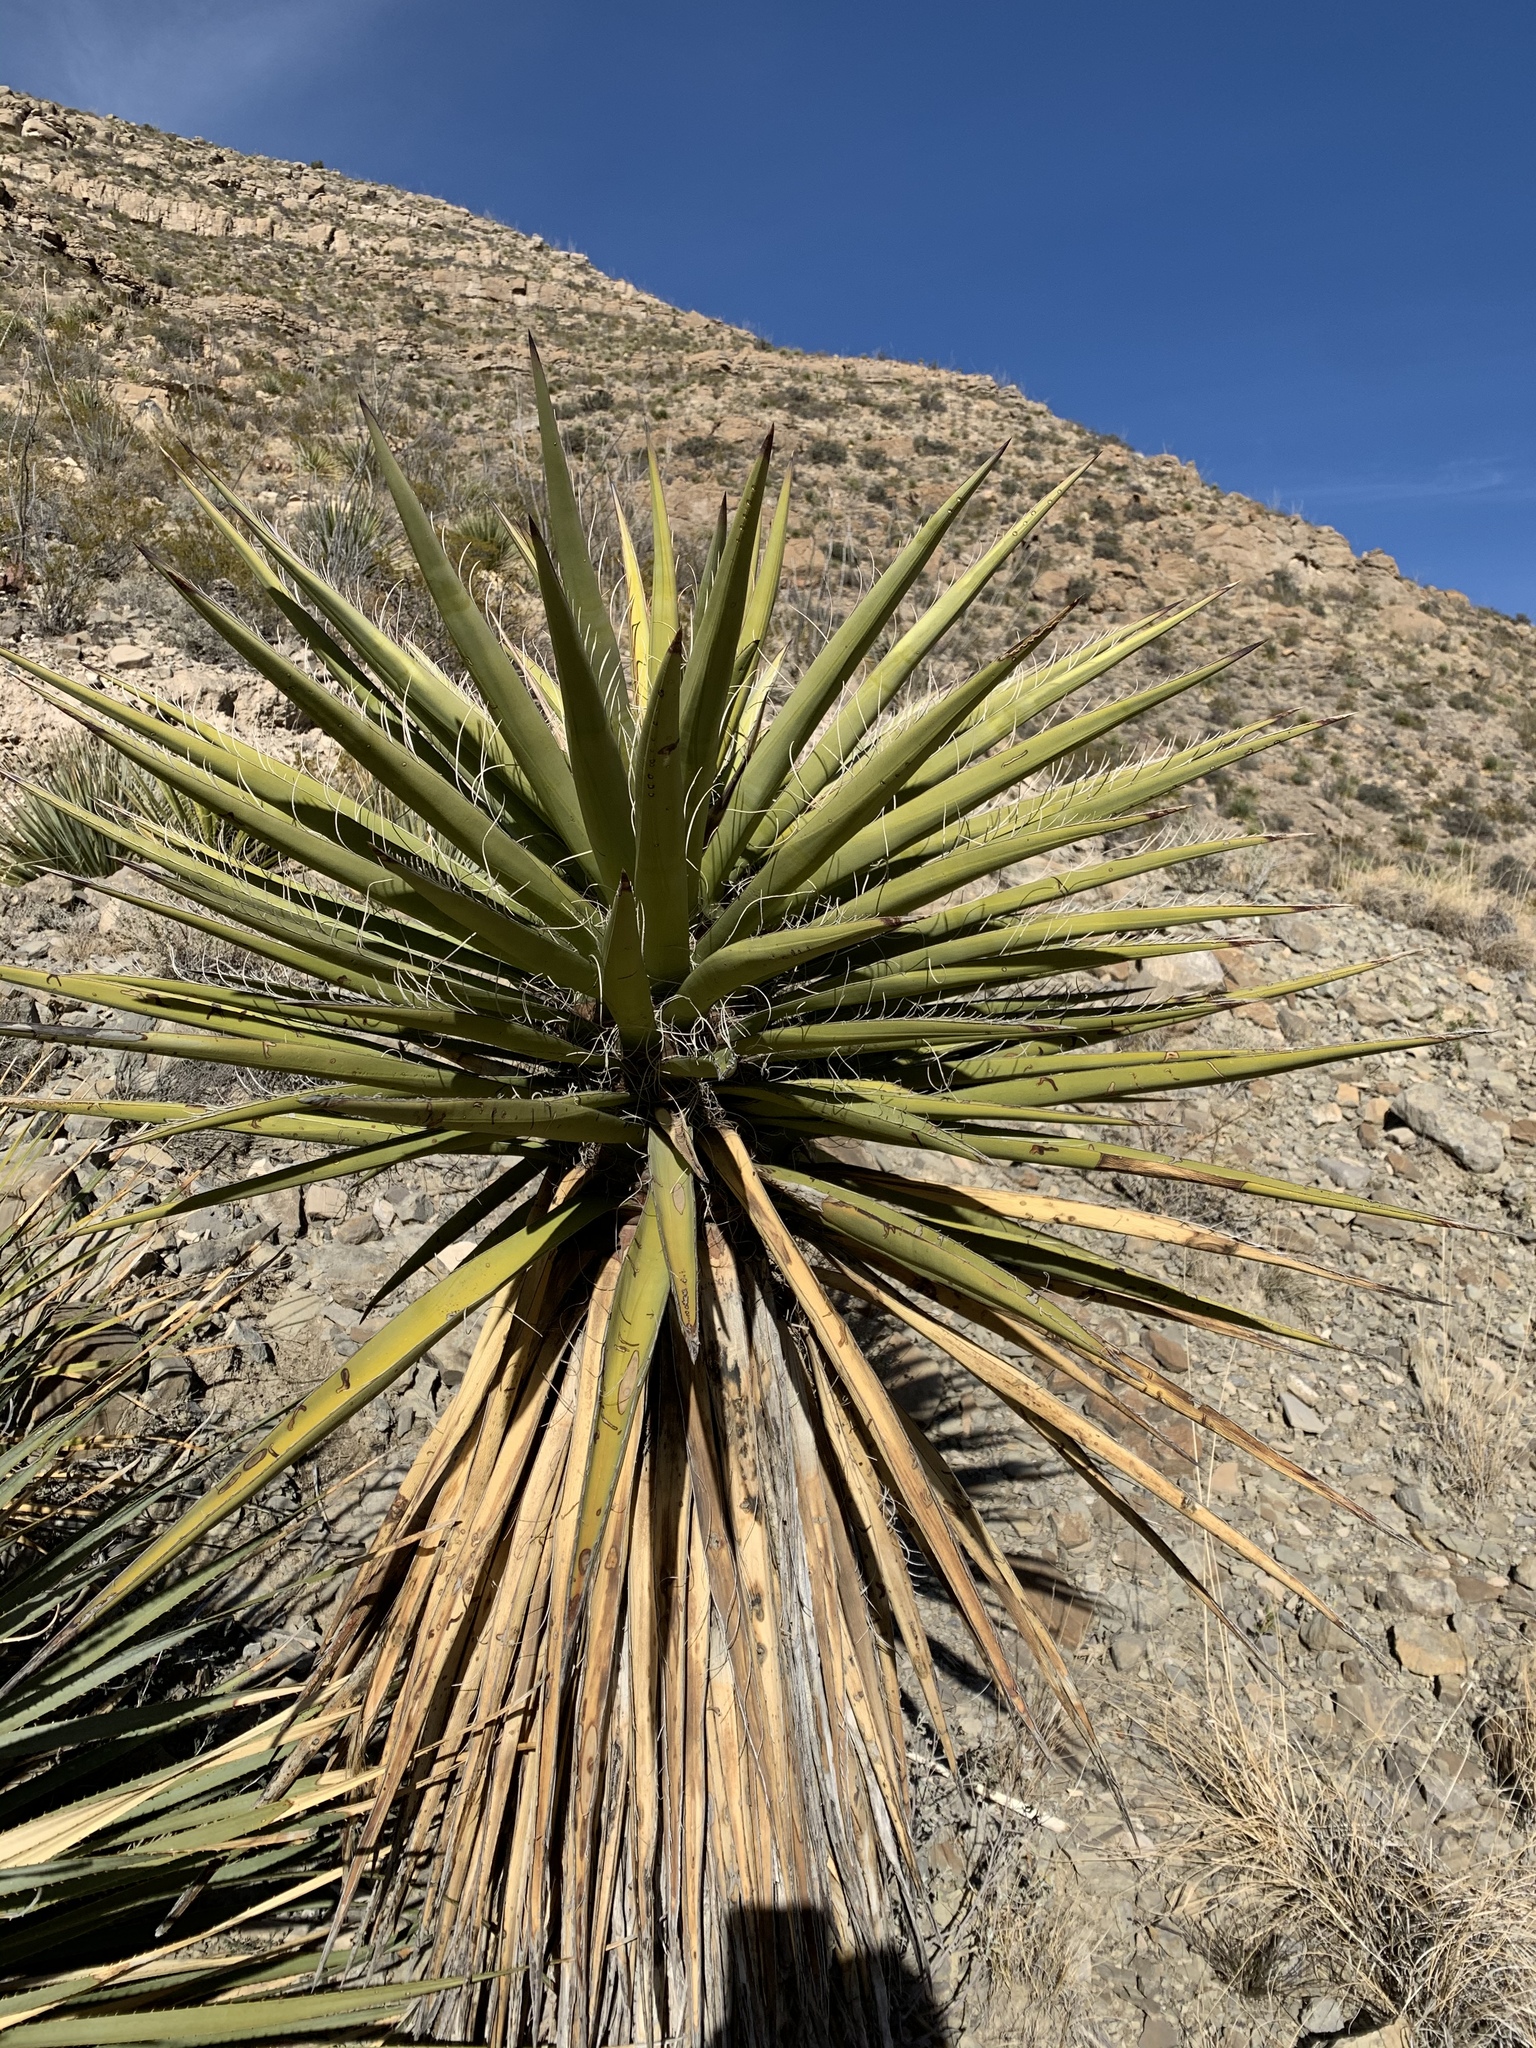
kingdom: Plantae
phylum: Tracheophyta
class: Liliopsida
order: Asparagales
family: Asparagaceae
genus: Yucca
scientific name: Yucca treculiana
